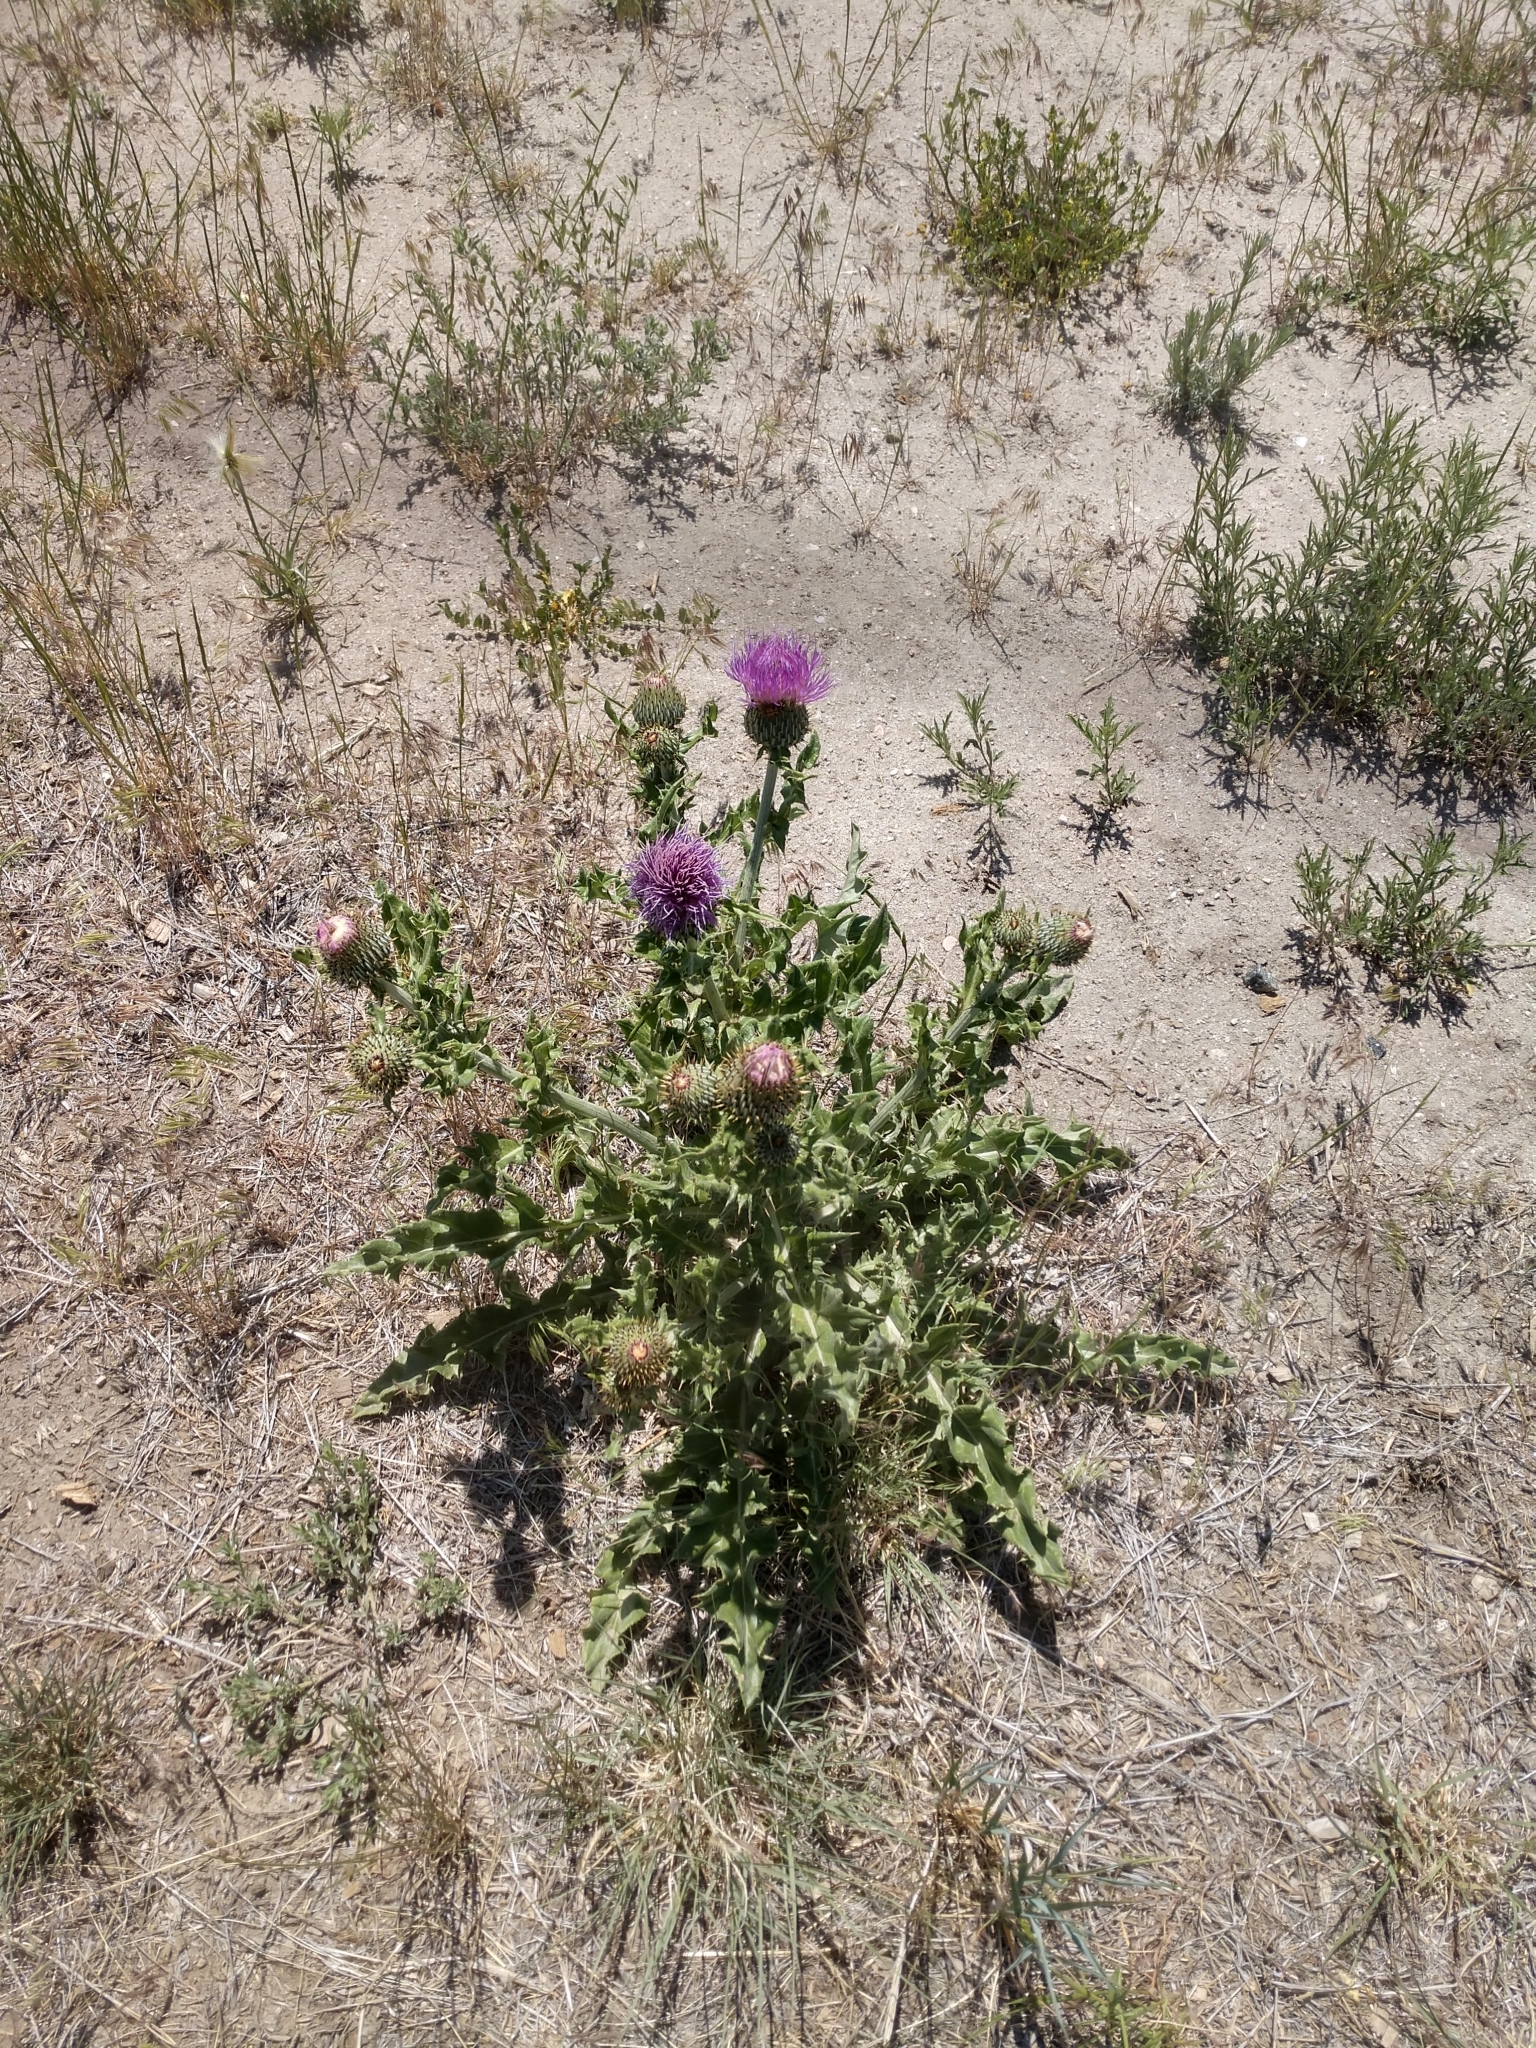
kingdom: Plantae
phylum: Tracheophyta
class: Magnoliopsida
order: Asterales
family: Asteraceae
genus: Cirsium
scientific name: Cirsium undulatum
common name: Pasture thistle
